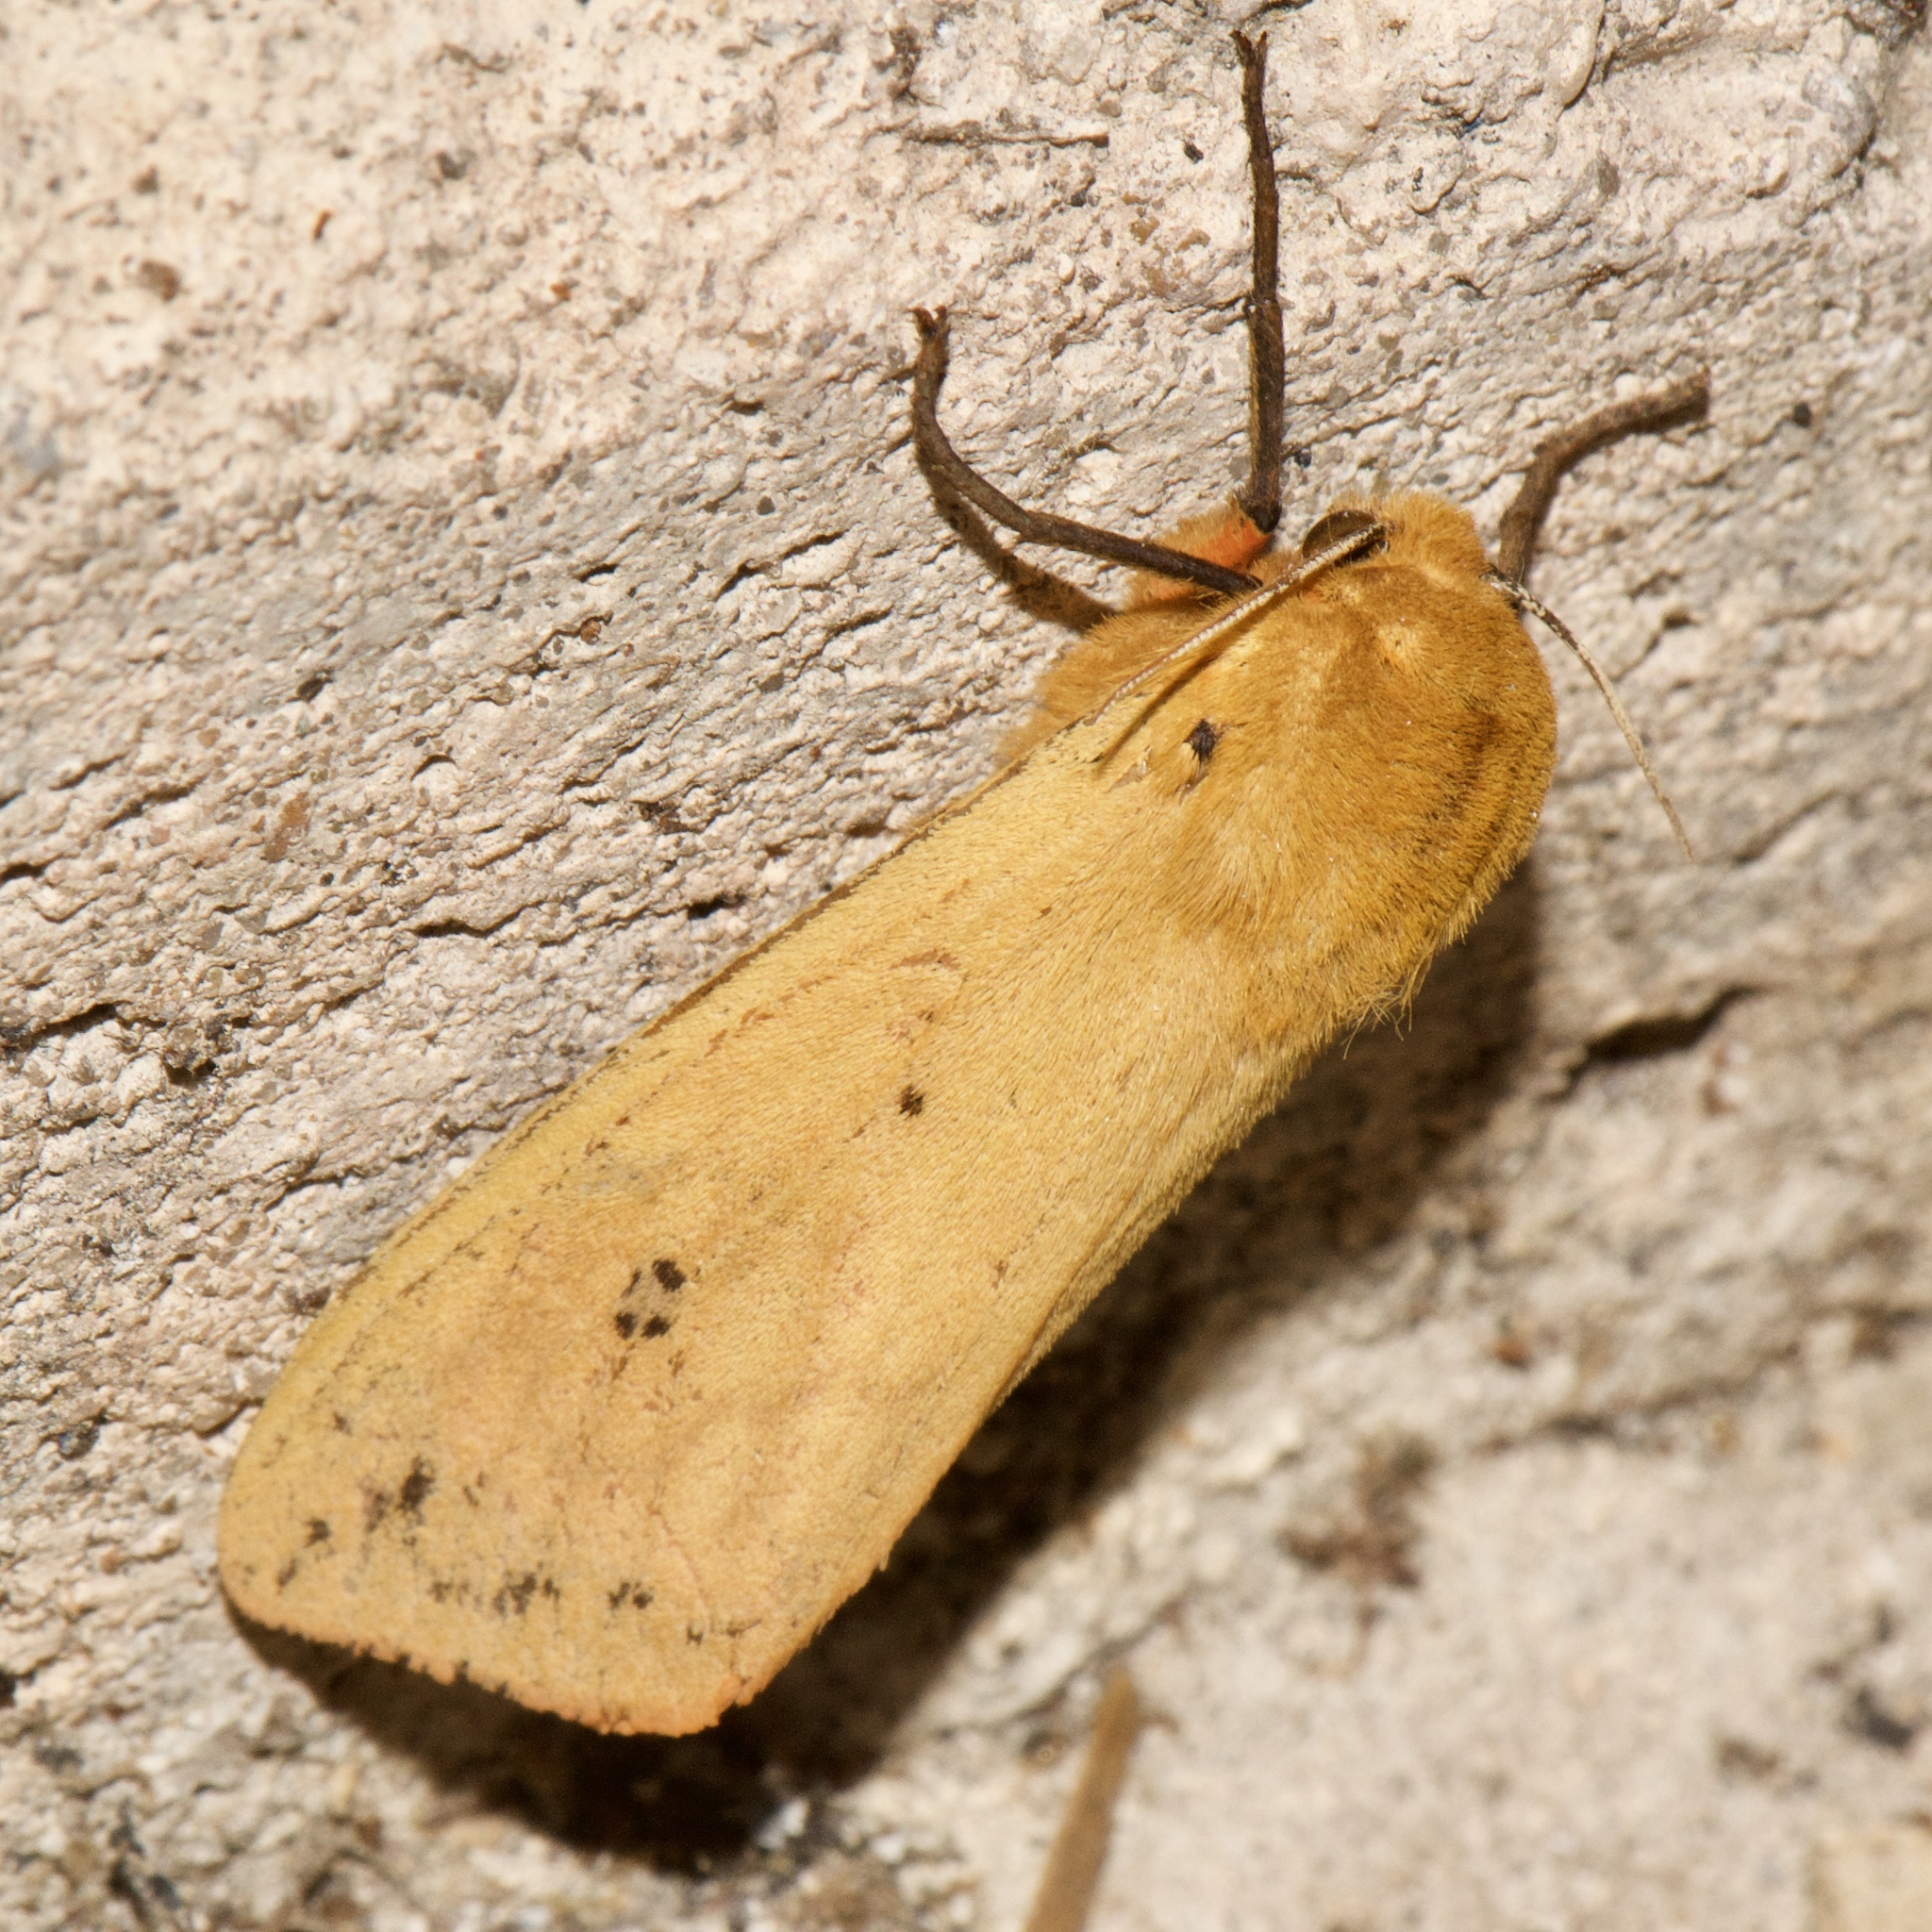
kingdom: Animalia
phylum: Arthropoda
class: Insecta
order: Lepidoptera
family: Erebidae
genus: Pyrrharctia
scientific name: Pyrrharctia isabella
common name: Isabella tiger moth
